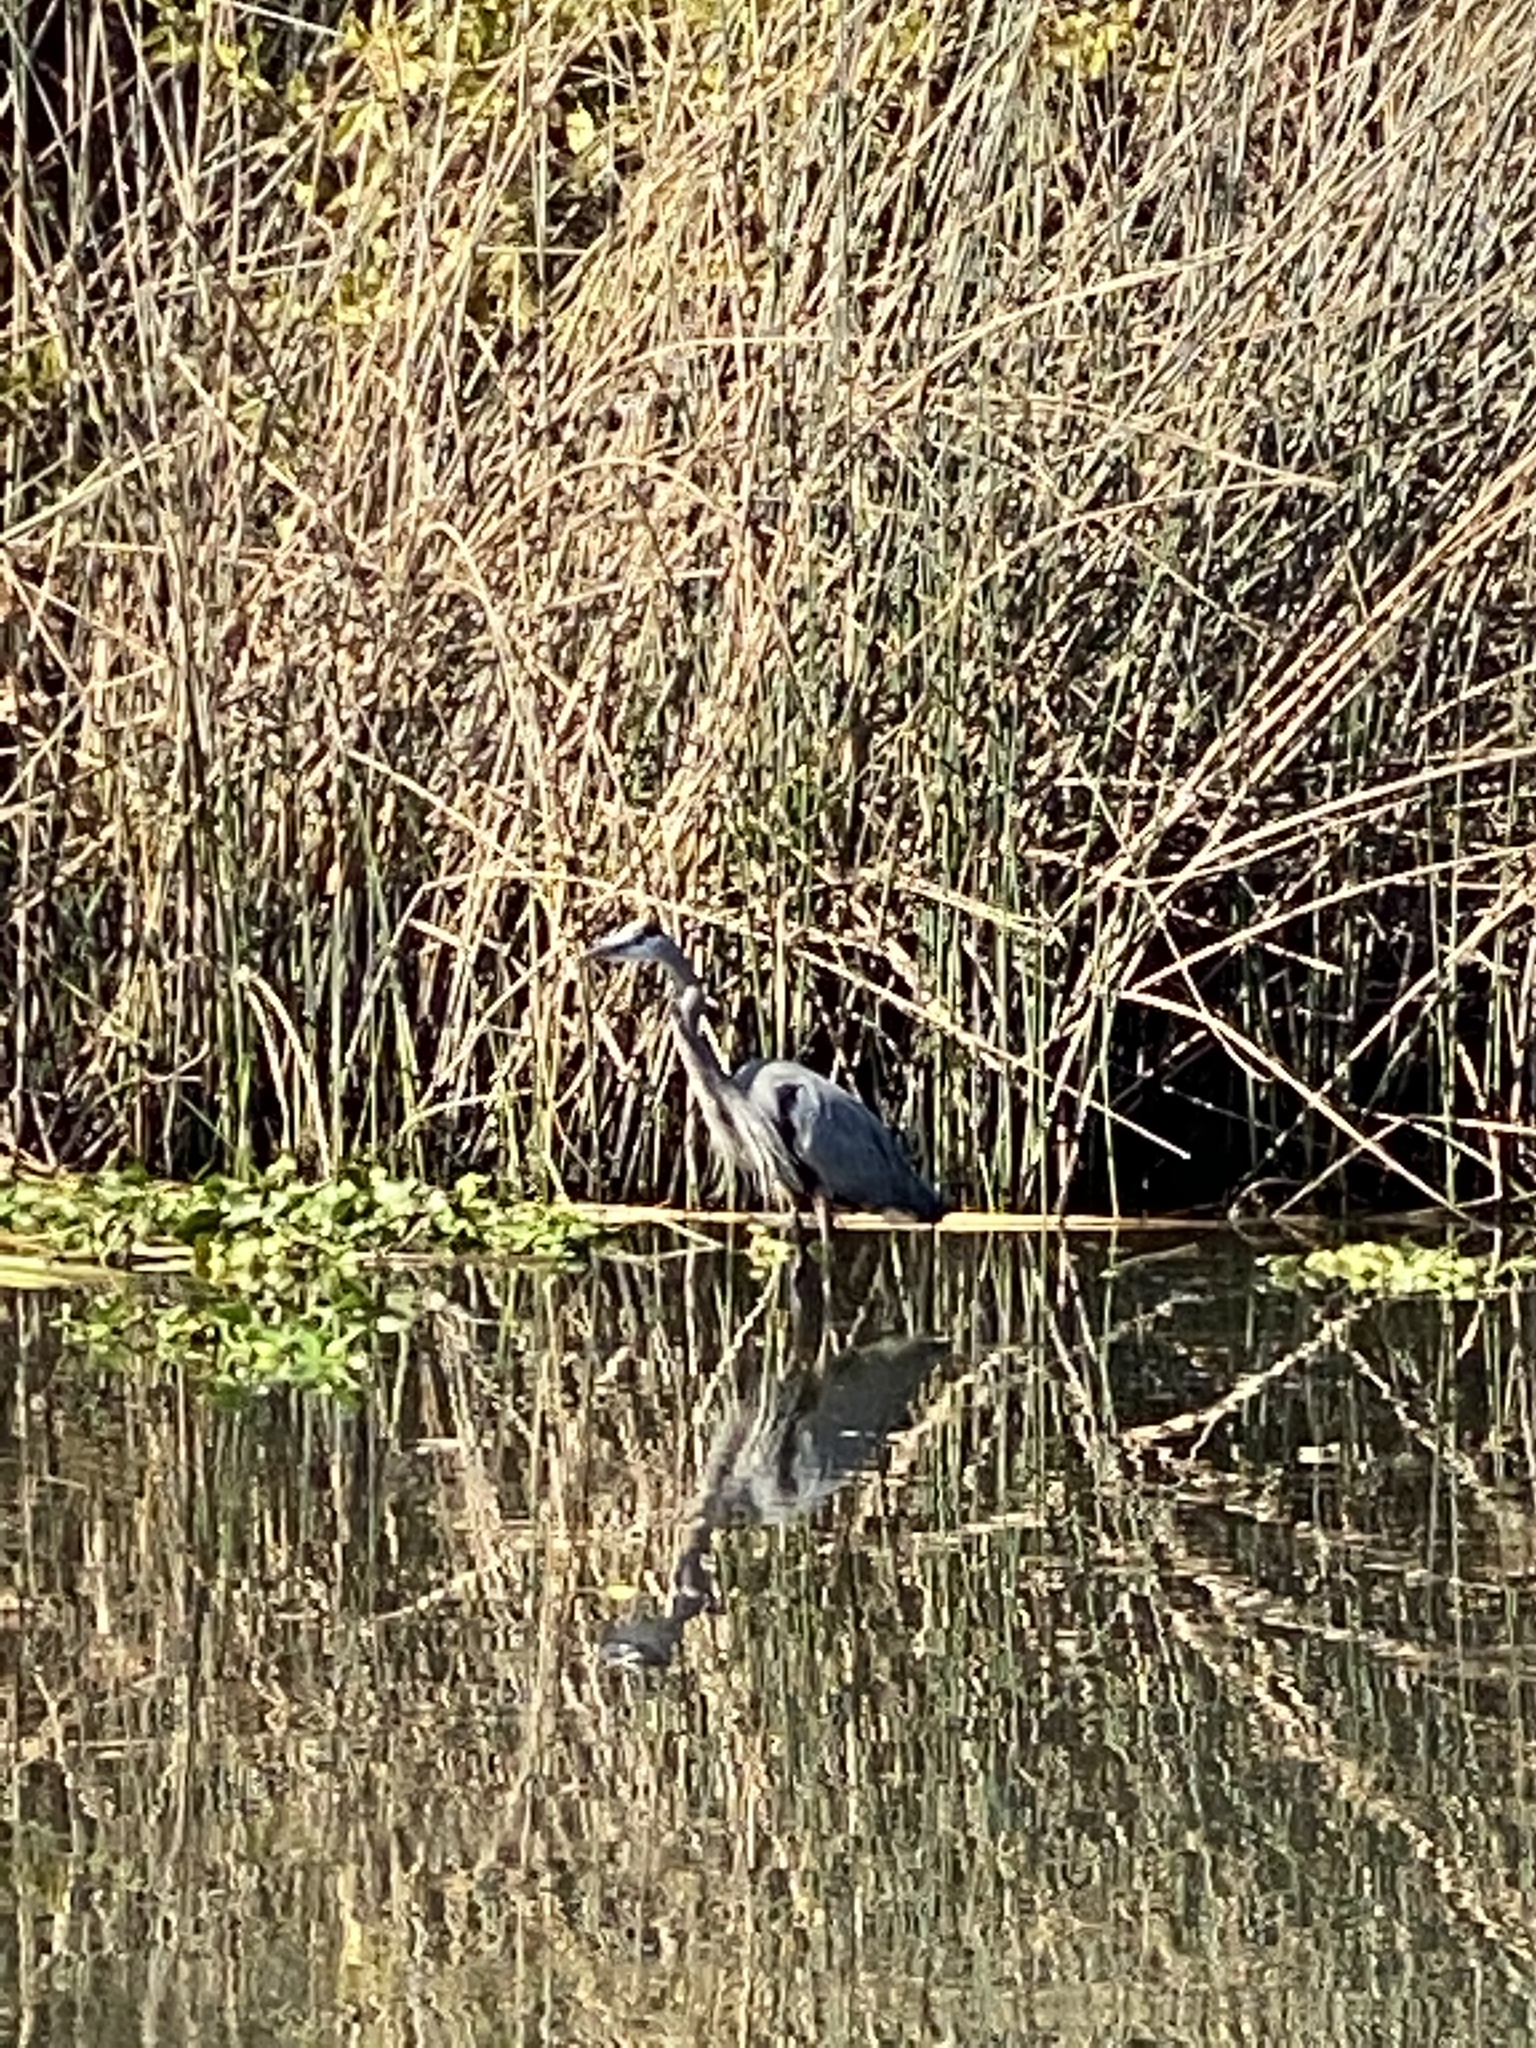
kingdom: Animalia
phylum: Chordata
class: Aves
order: Pelecaniformes
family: Ardeidae
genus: Ardea
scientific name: Ardea herodias
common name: Great blue heron
